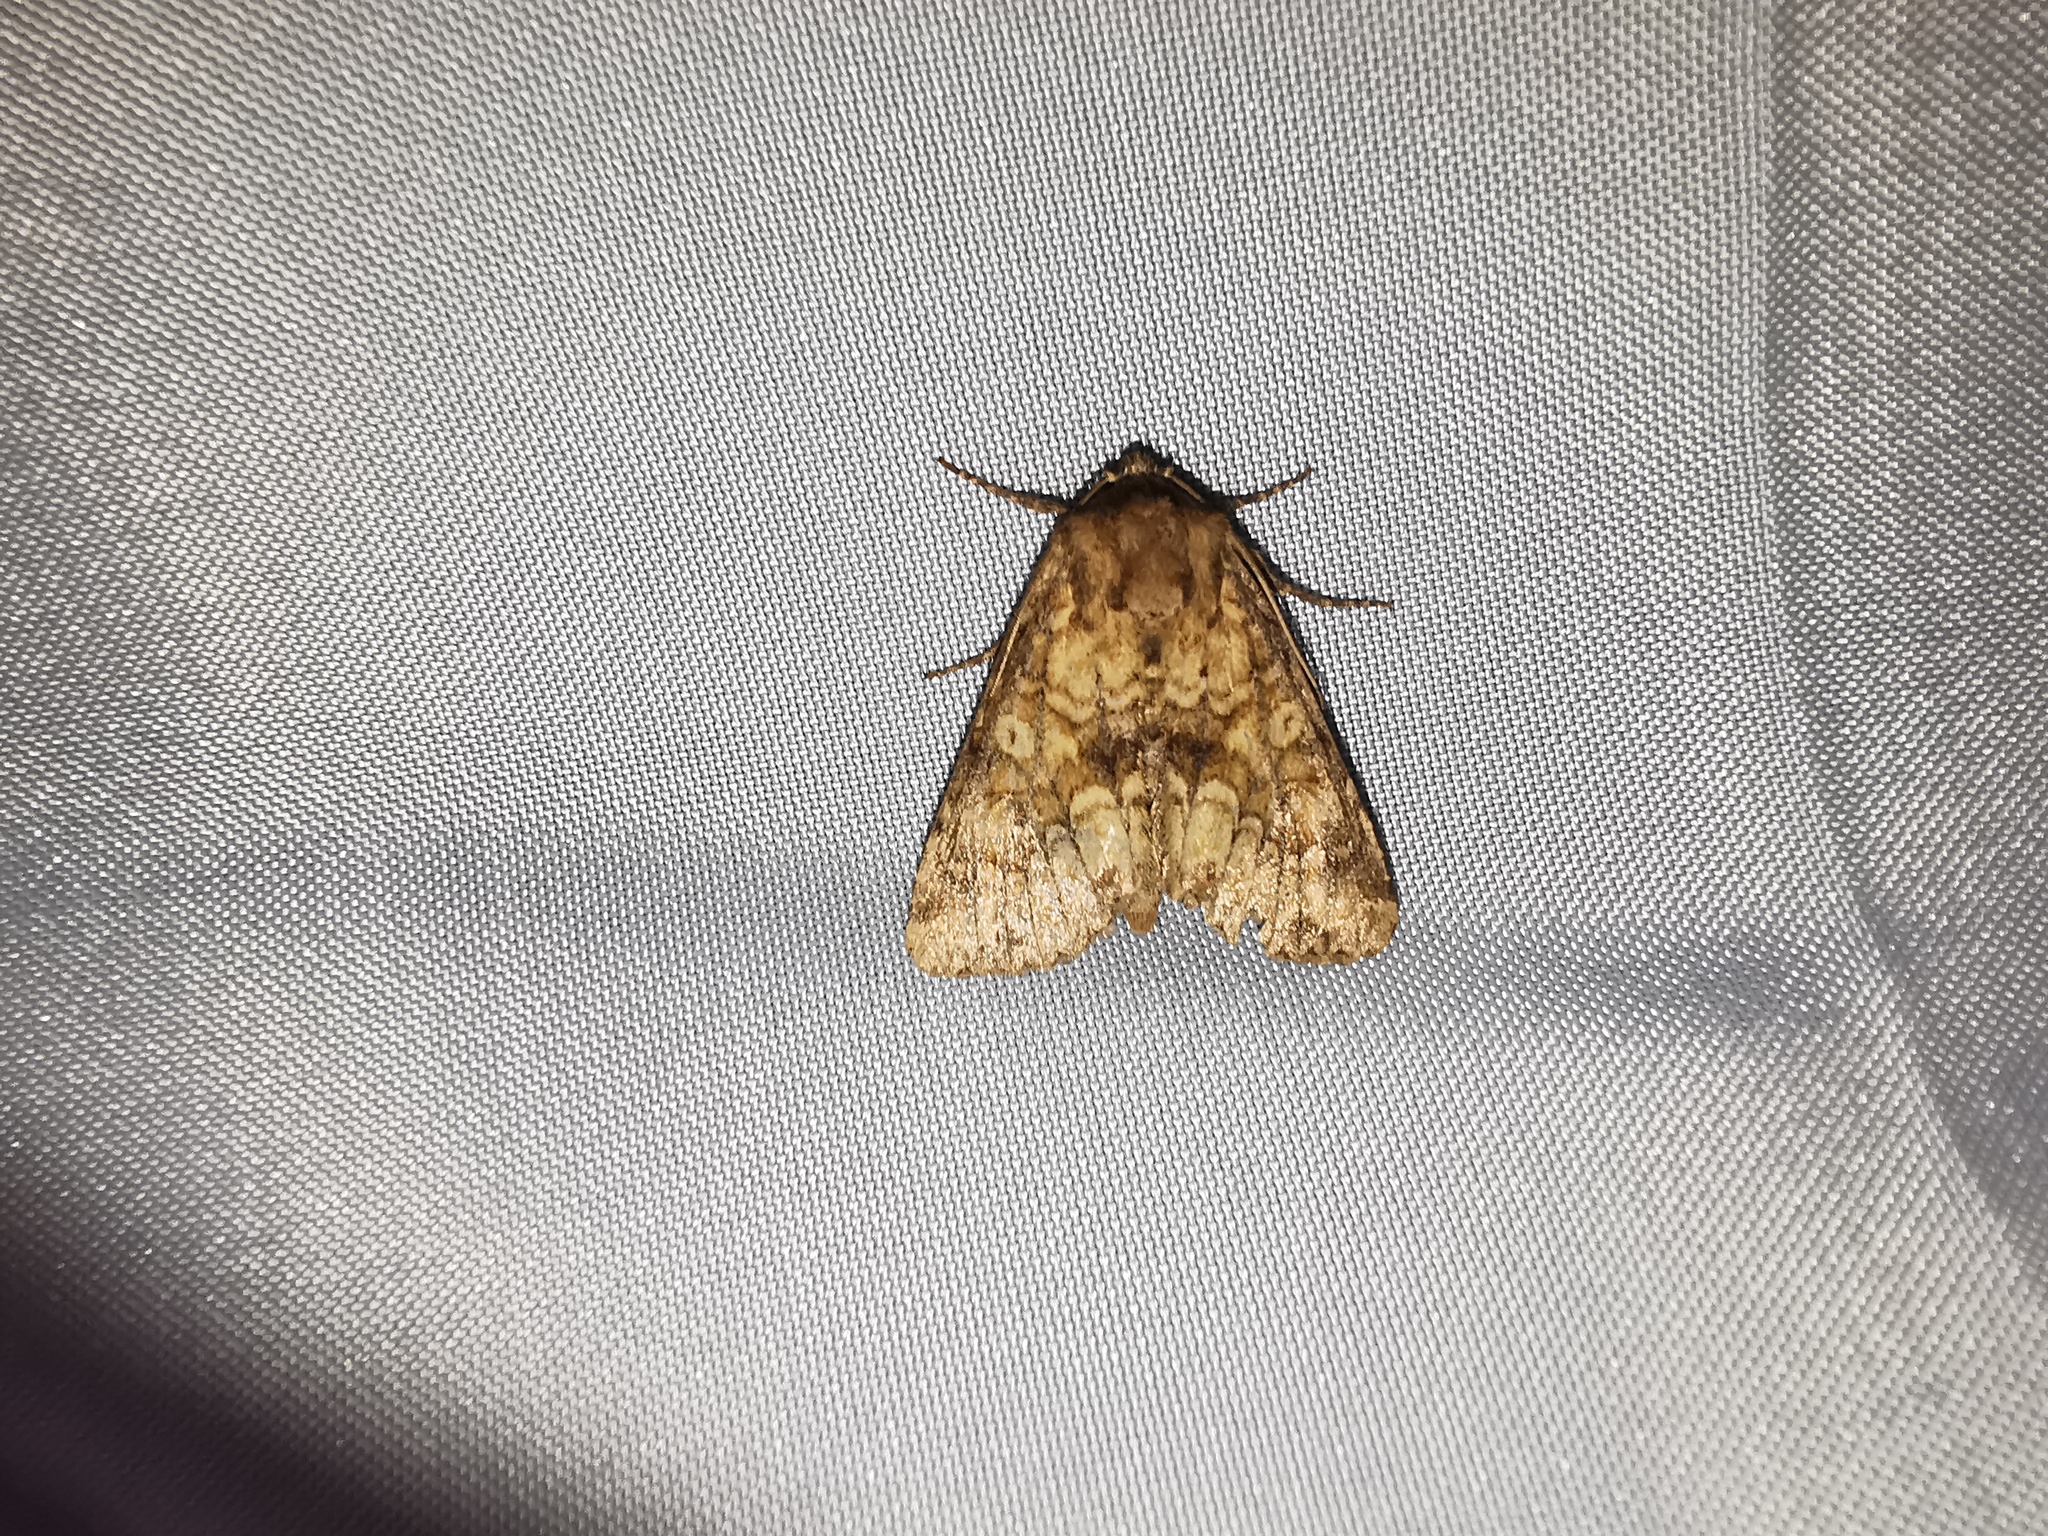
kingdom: Animalia
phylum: Arthropoda
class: Insecta
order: Lepidoptera
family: Noctuidae
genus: Conisania
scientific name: Conisania luteago
